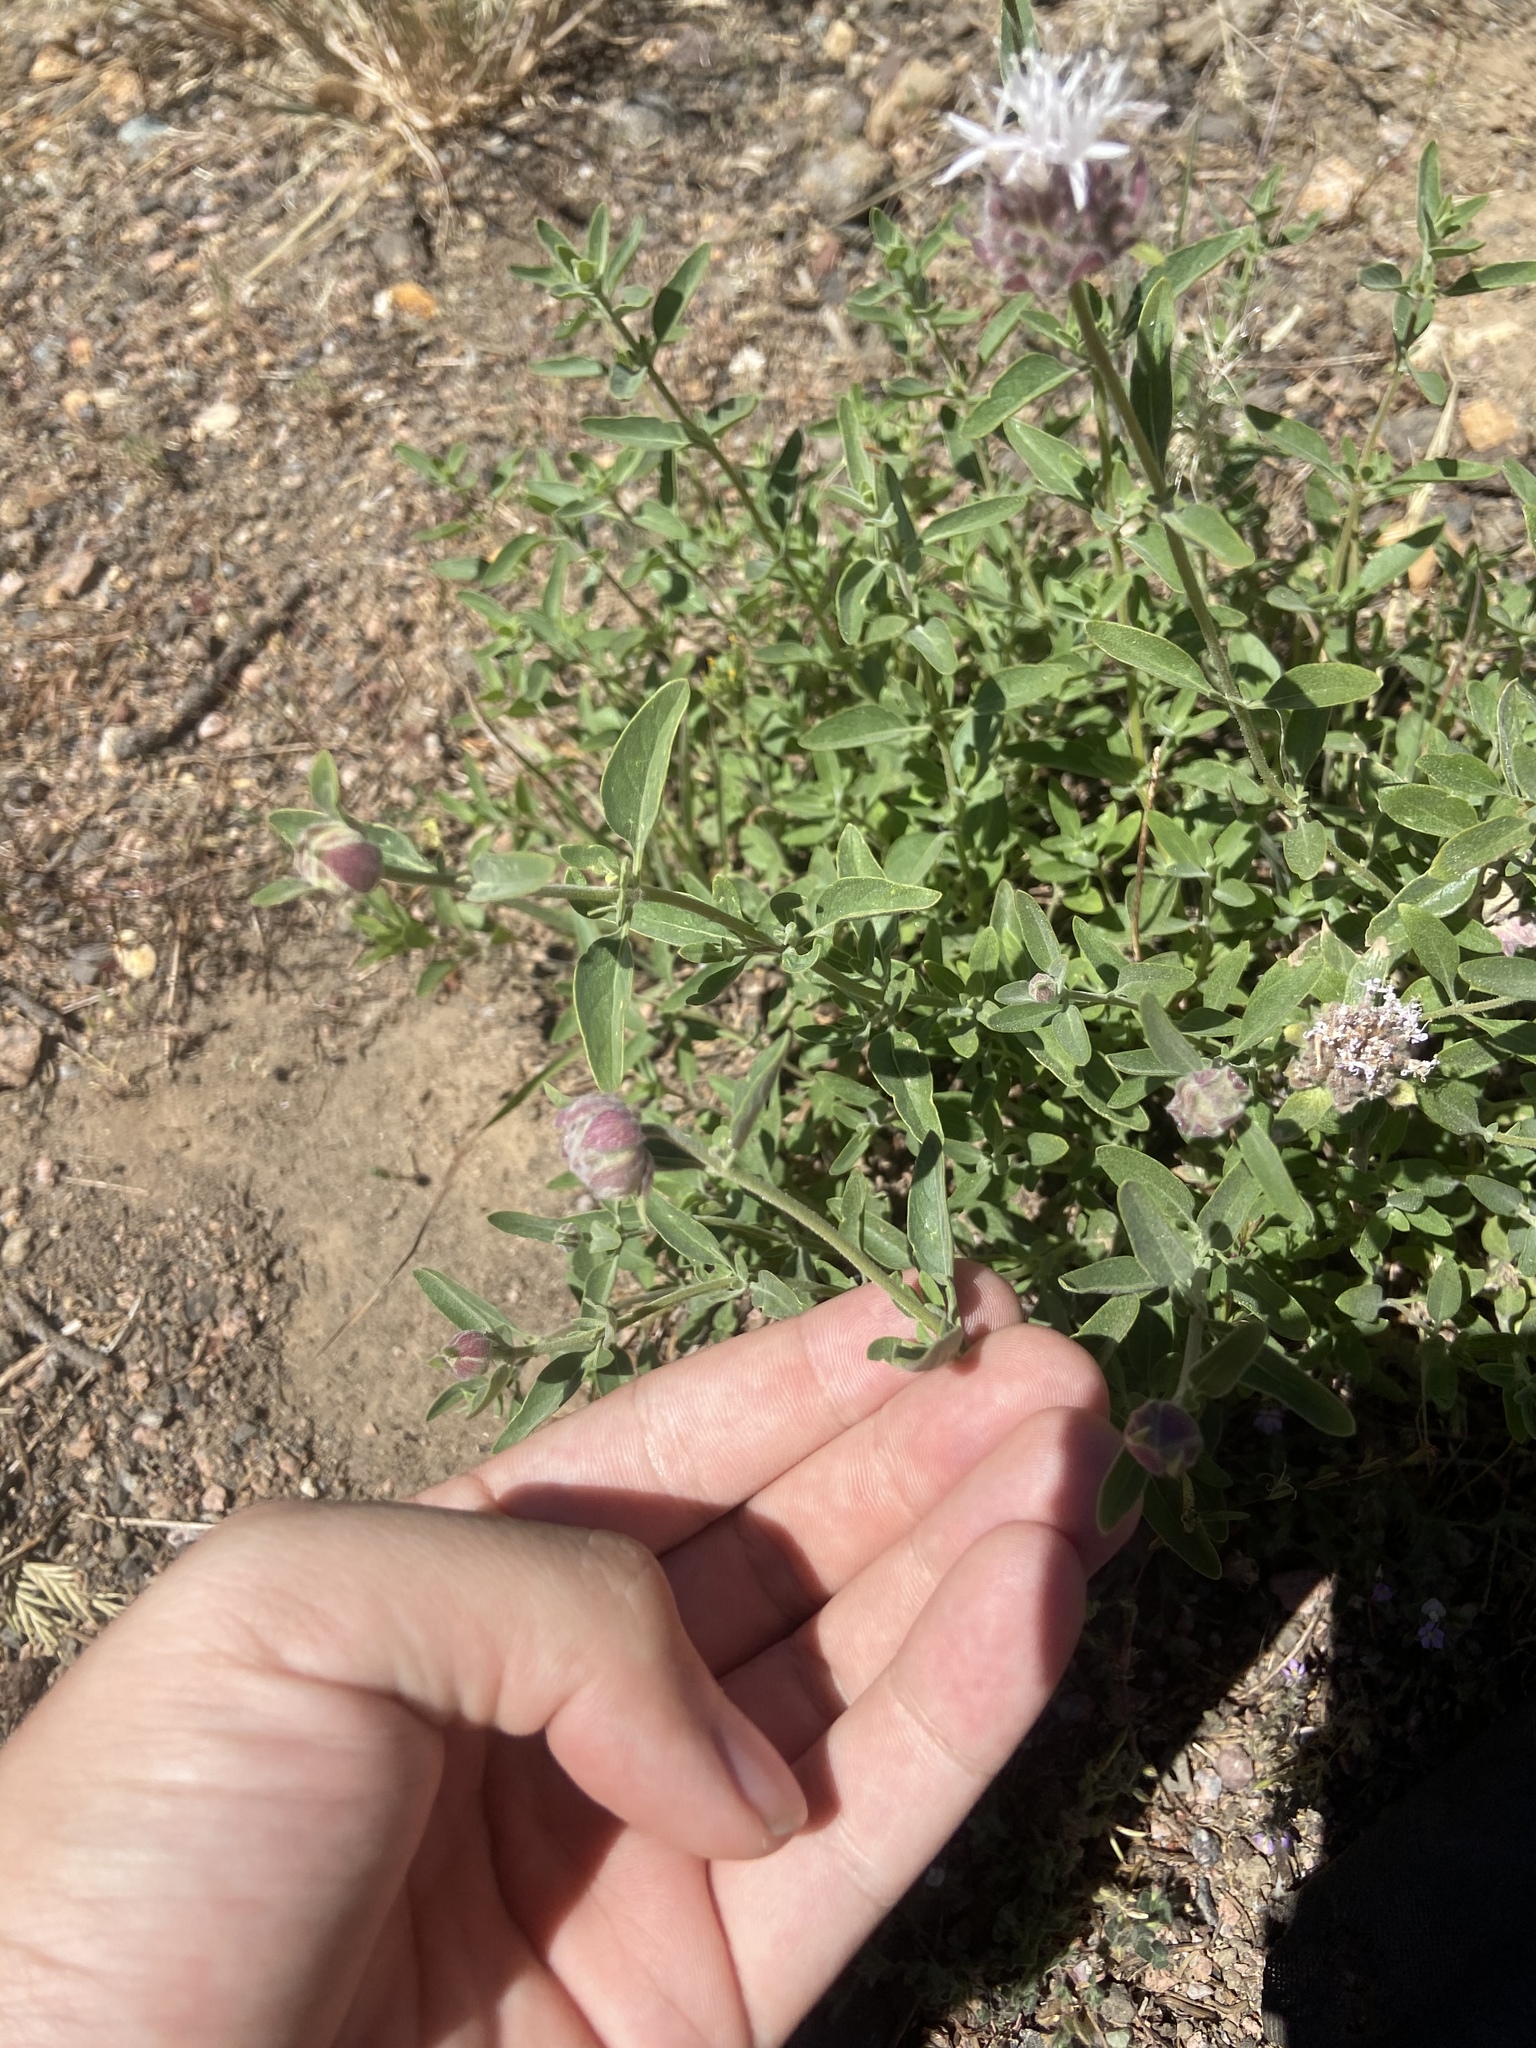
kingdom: Plantae
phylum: Tracheophyta
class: Magnoliopsida
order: Lamiales
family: Lamiaceae
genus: Monardella
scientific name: Monardella odoratissima
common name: Pacific monardella
